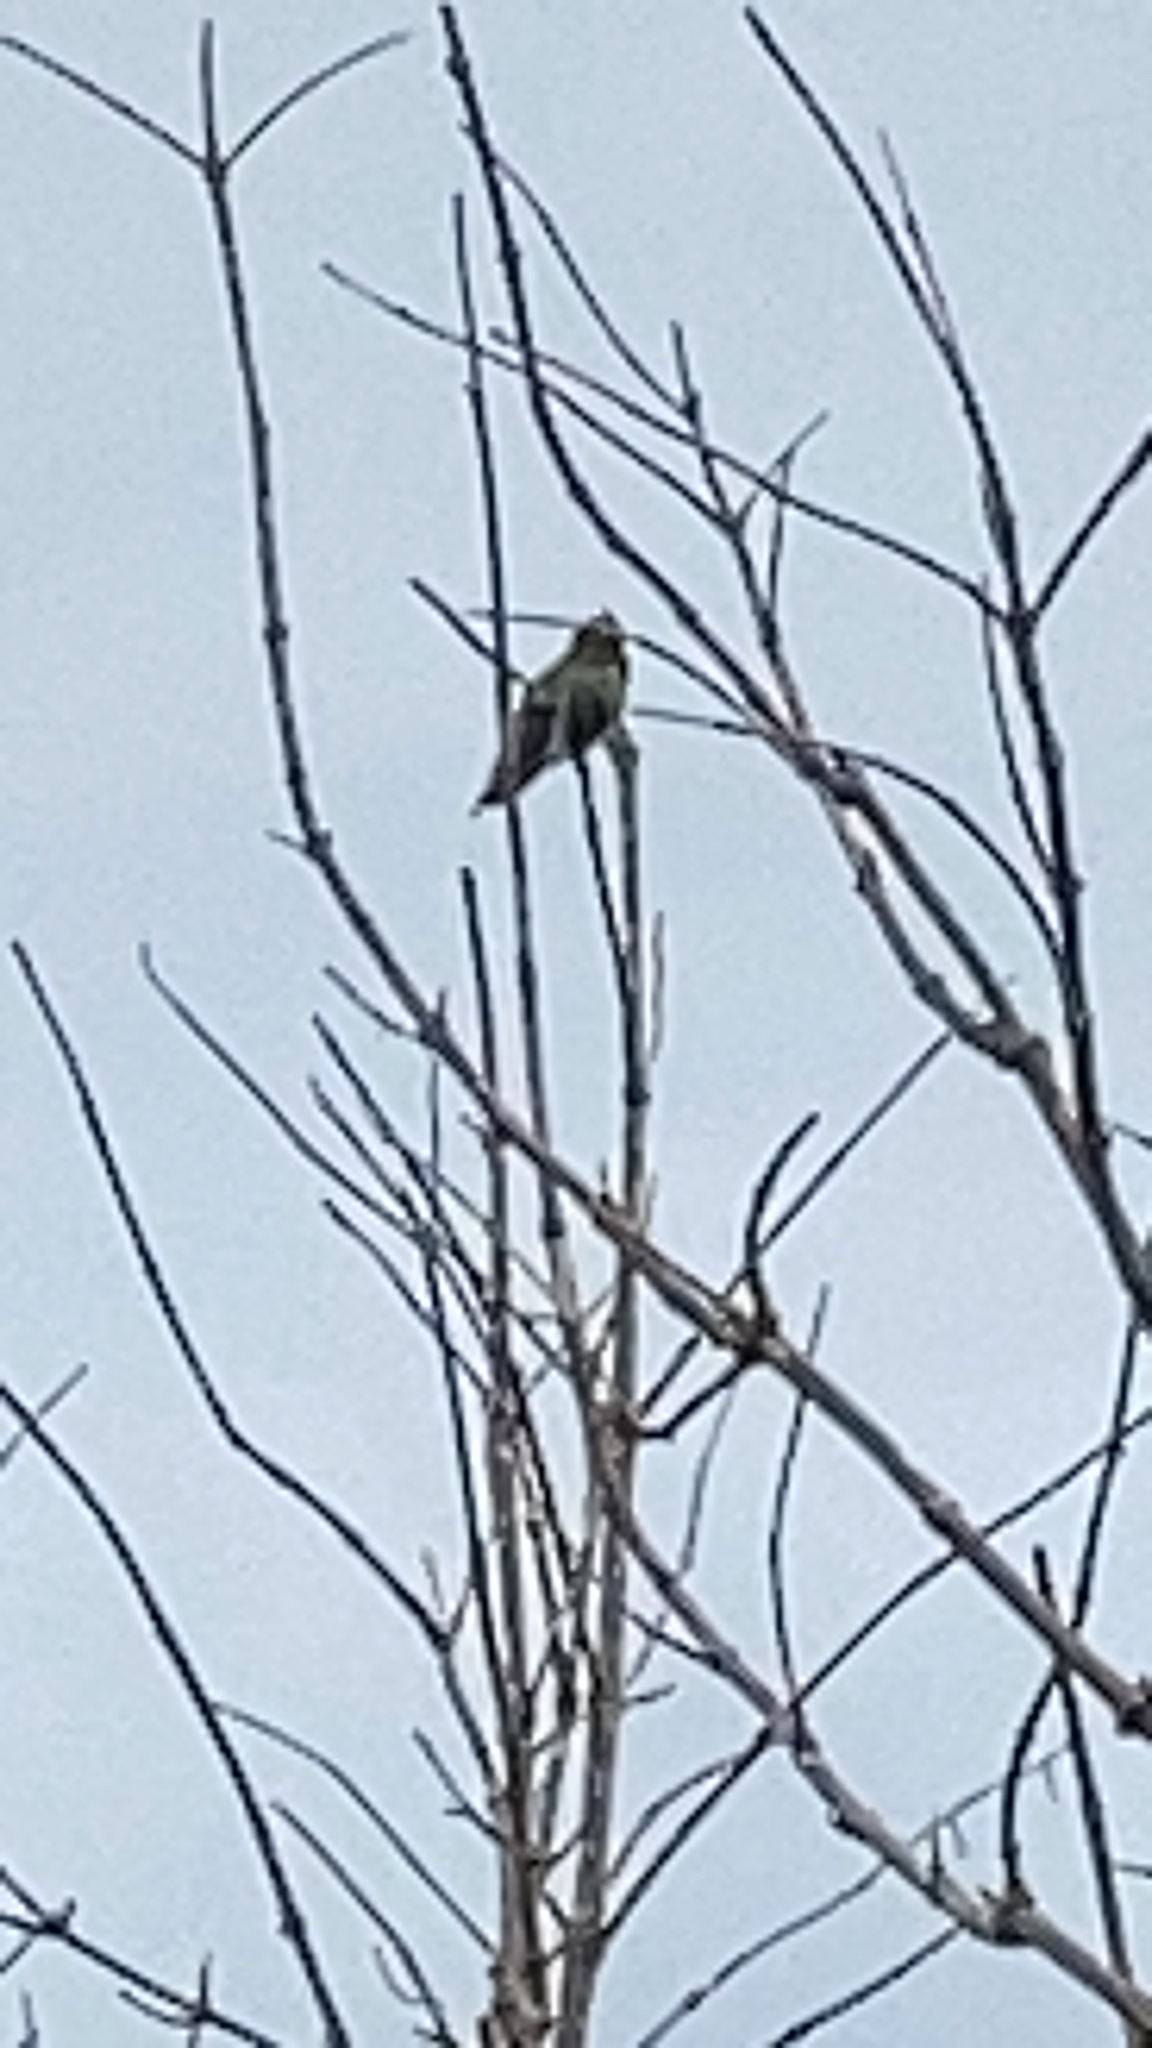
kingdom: Animalia
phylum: Chordata
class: Aves
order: Apodiformes
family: Trochilidae
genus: Calypte
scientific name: Calypte anna
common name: Anna's hummingbird
